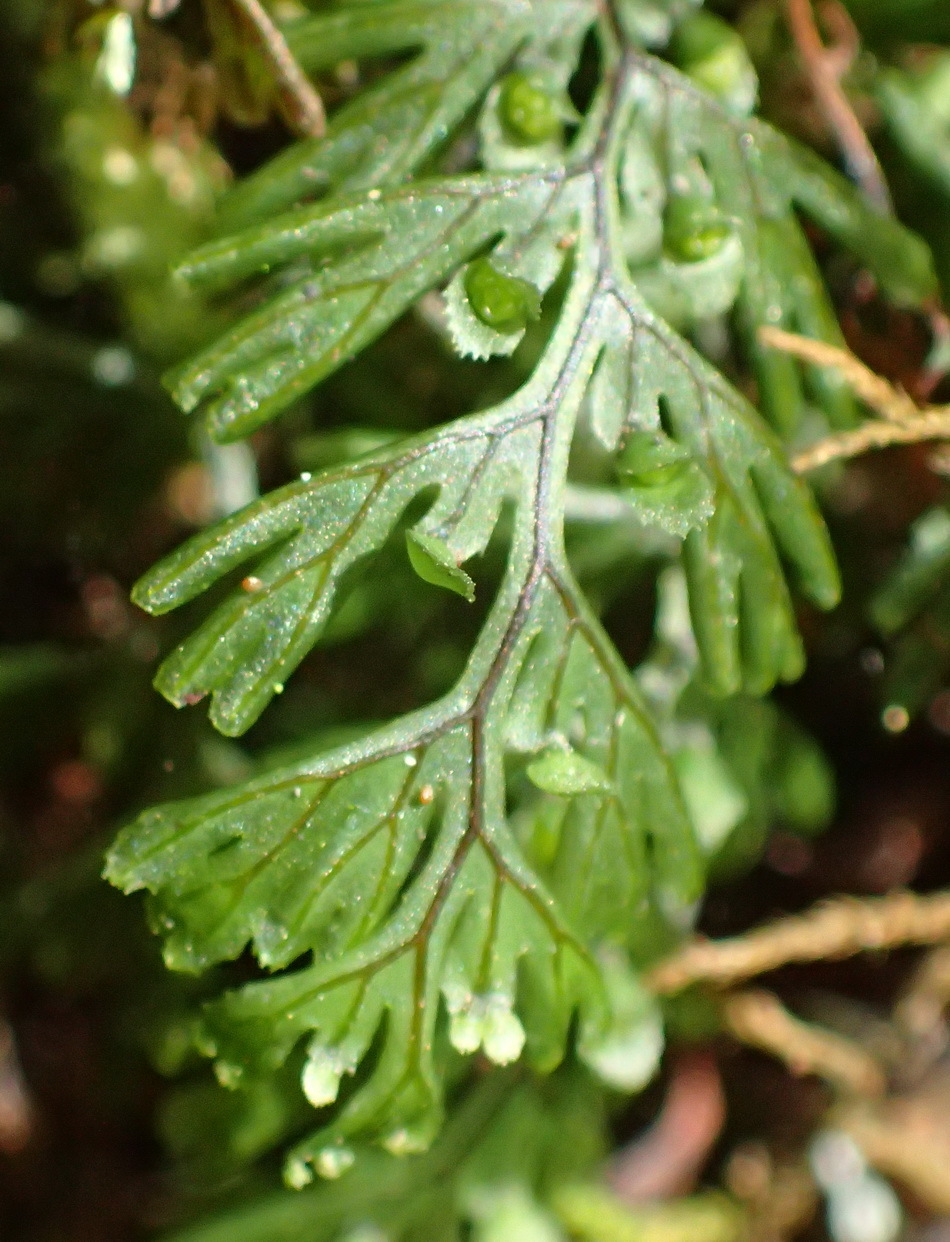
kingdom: Plantae
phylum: Tracheophyta
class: Polypodiopsida
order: Hymenophyllales
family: Hymenophyllaceae
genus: Hymenophyllum
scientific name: Hymenophyllum tunbrigense
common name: Tunbridge filmy fern
